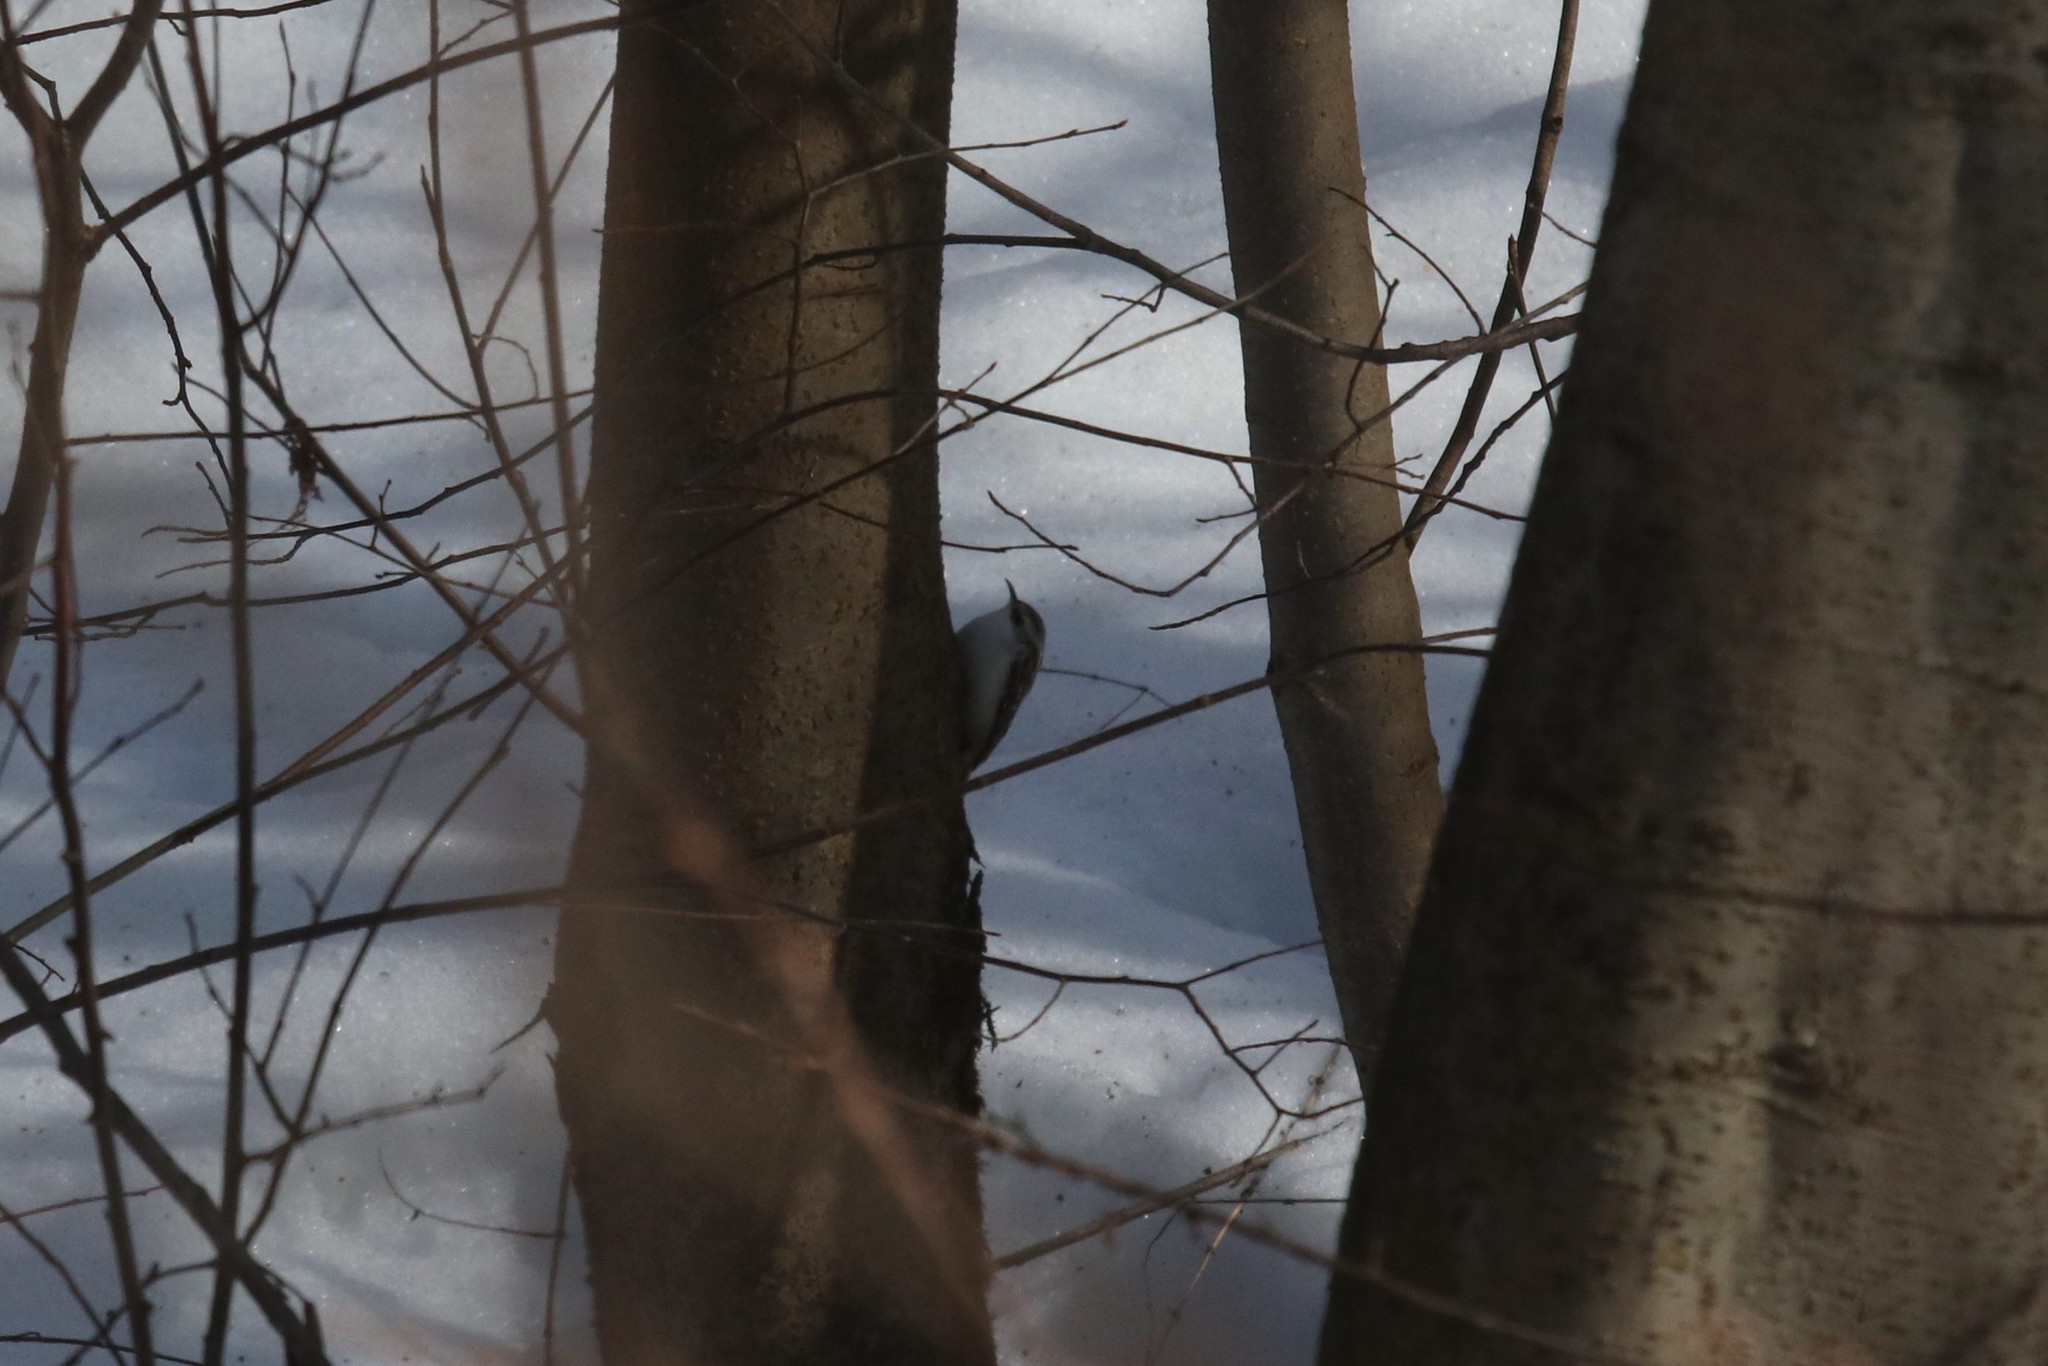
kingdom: Animalia
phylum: Chordata
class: Aves
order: Passeriformes
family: Certhiidae
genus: Certhia
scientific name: Certhia familiaris
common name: Eurasian treecreeper
